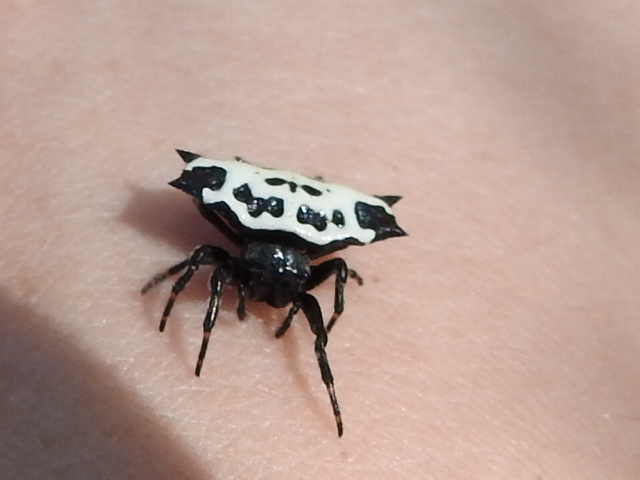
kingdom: Animalia
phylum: Arthropoda
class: Arachnida
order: Araneae
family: Araneidae
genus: Gasteracantha
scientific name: Gasteracantha cancriformis
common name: Orb weavers
